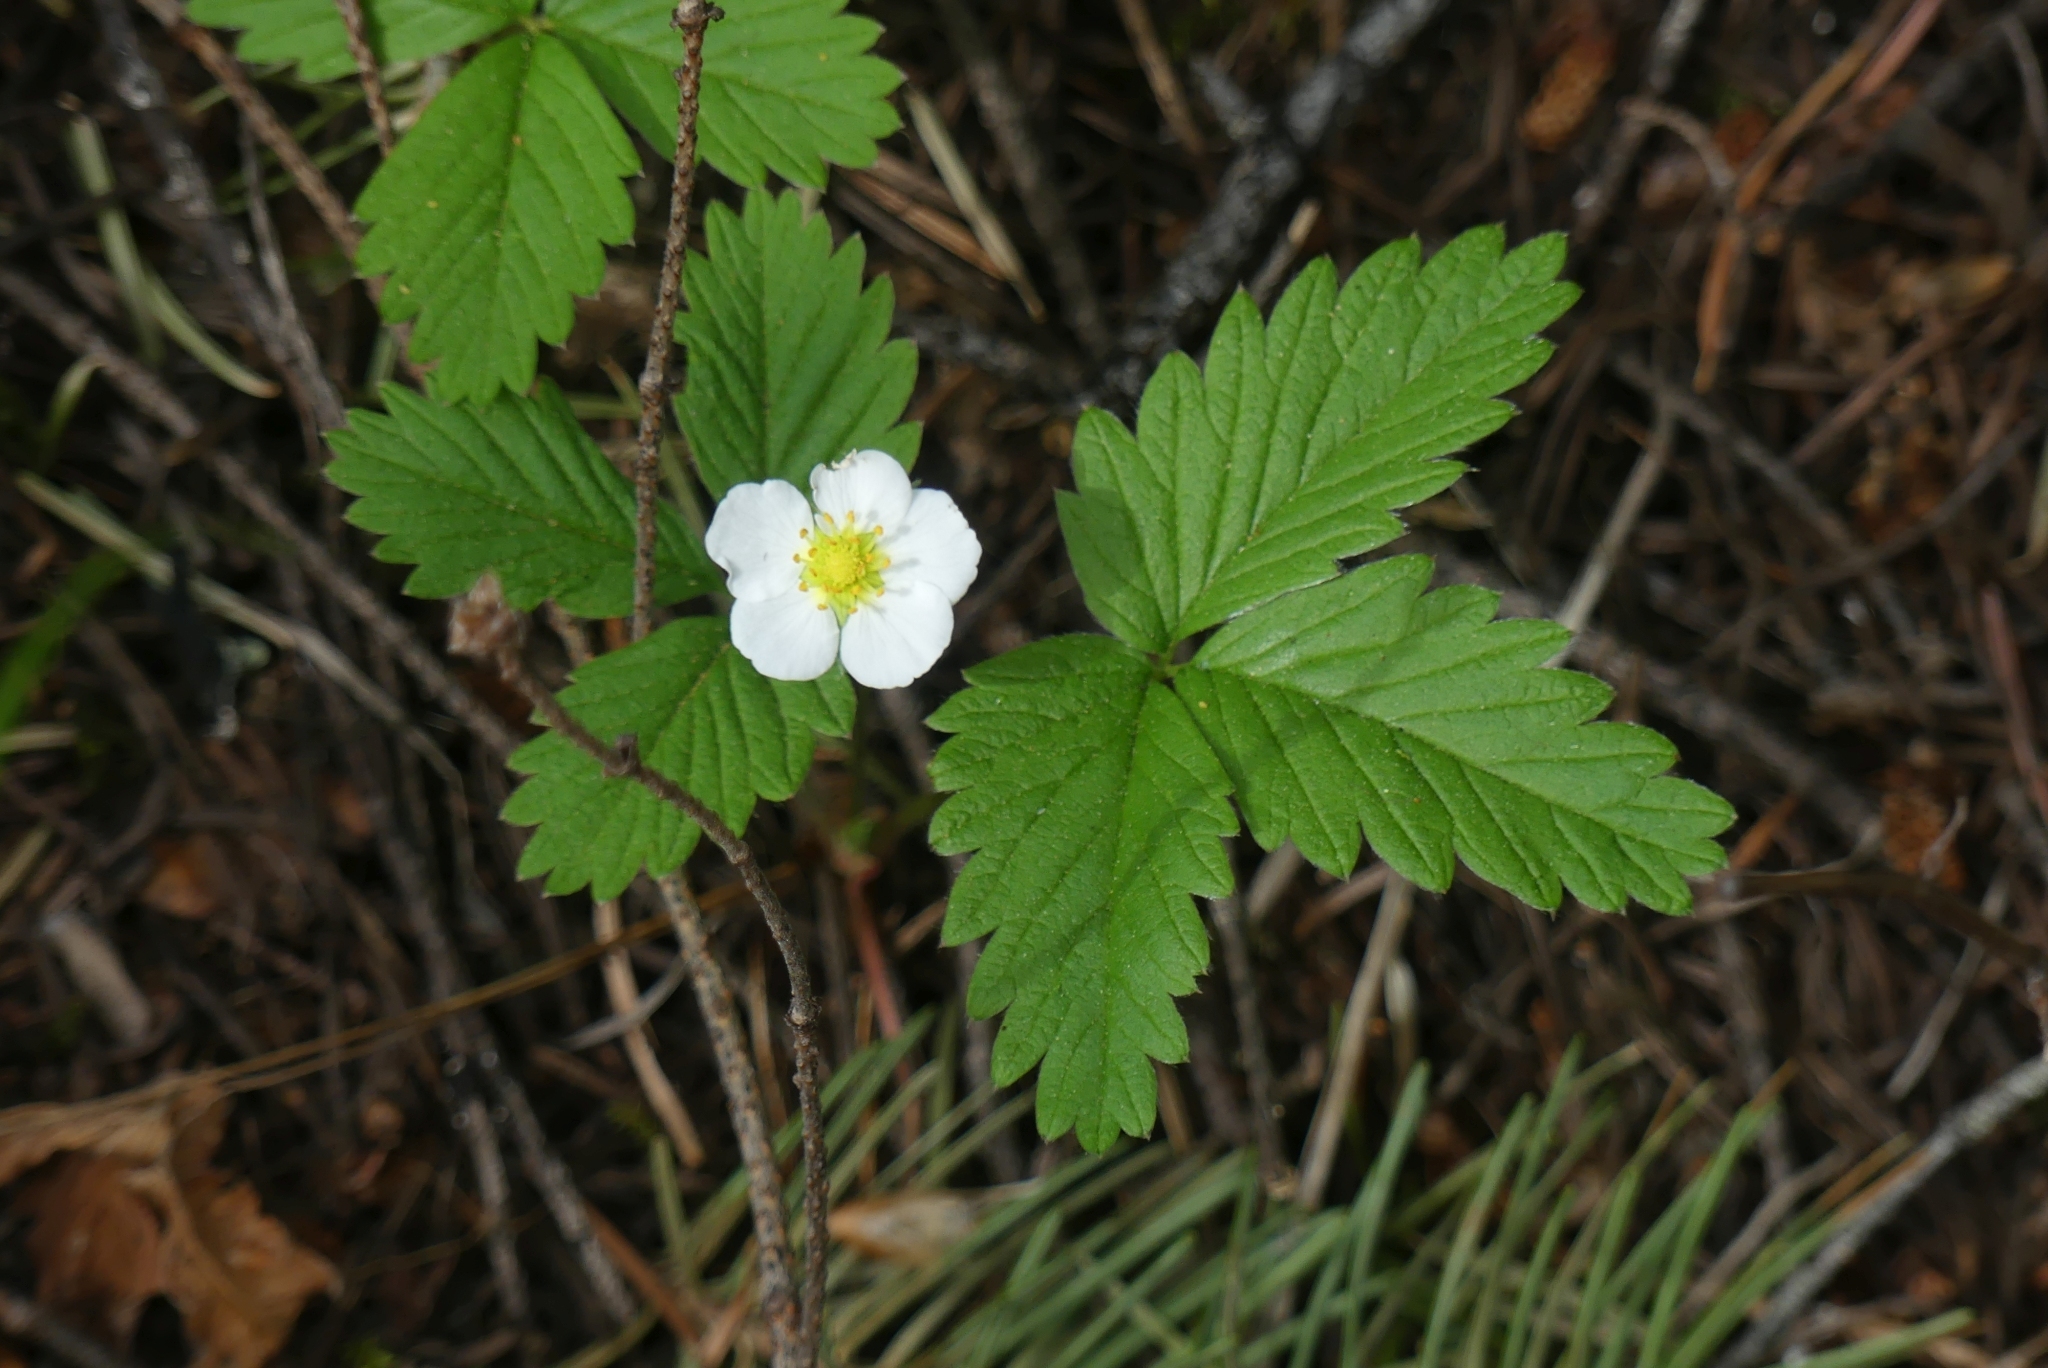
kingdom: Plantae
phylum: Tracheophyta
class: Magnoliopsida
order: Rosales
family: Rosaceae
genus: Fragaria
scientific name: Fragaria vesca
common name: Wild strawberry
